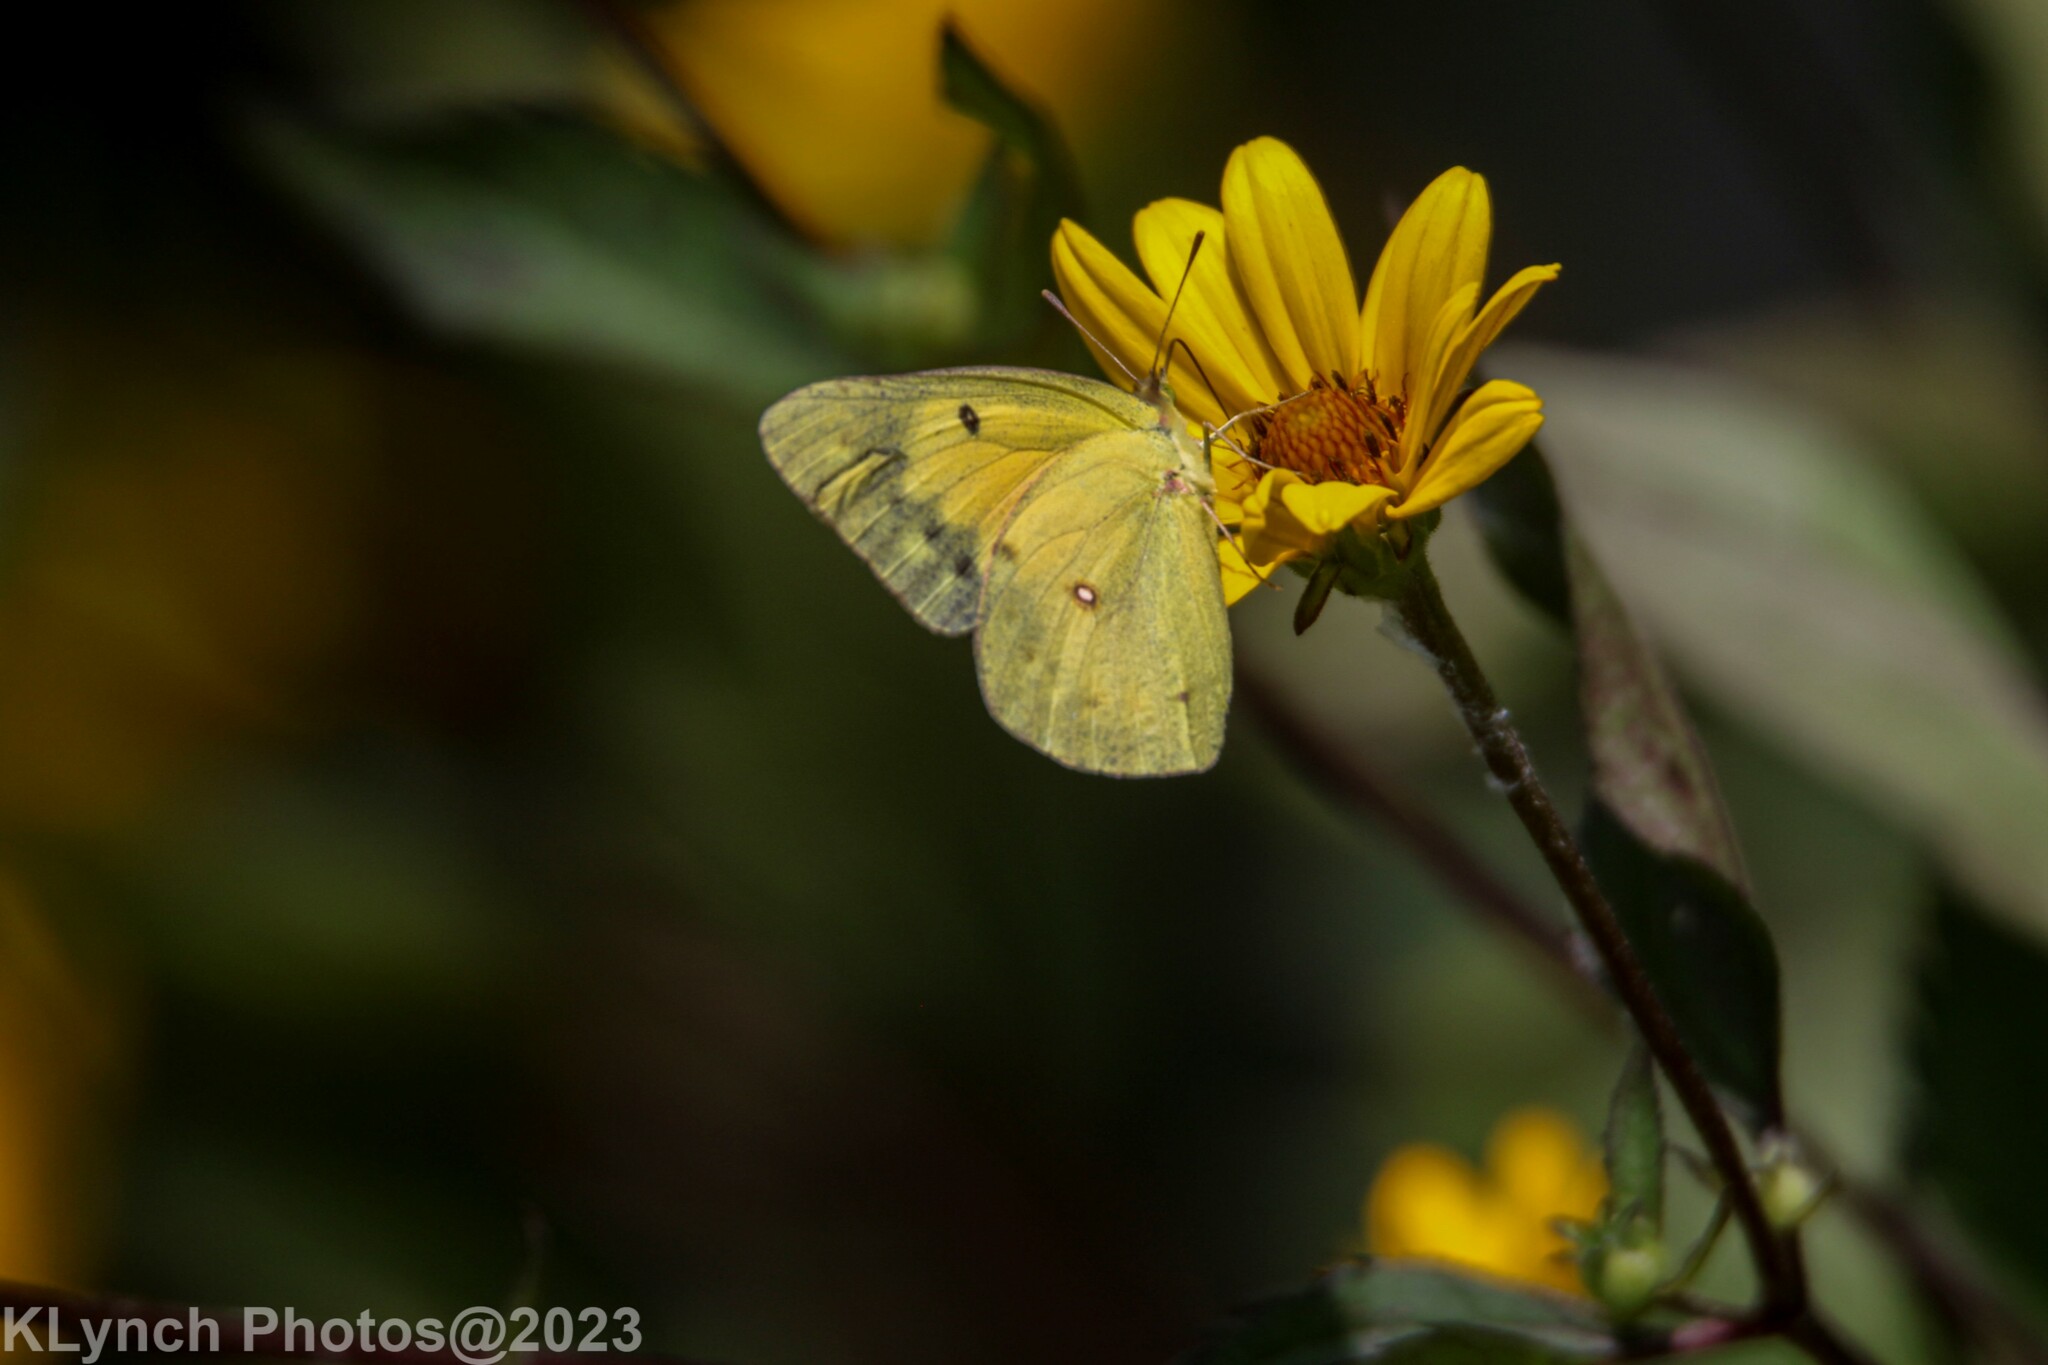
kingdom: Animalia
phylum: Arthropoda
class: Insecta
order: Lepidoptera
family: Pieridae
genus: Colias
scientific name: Colias eurytheme
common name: Alfalfa butterfly
